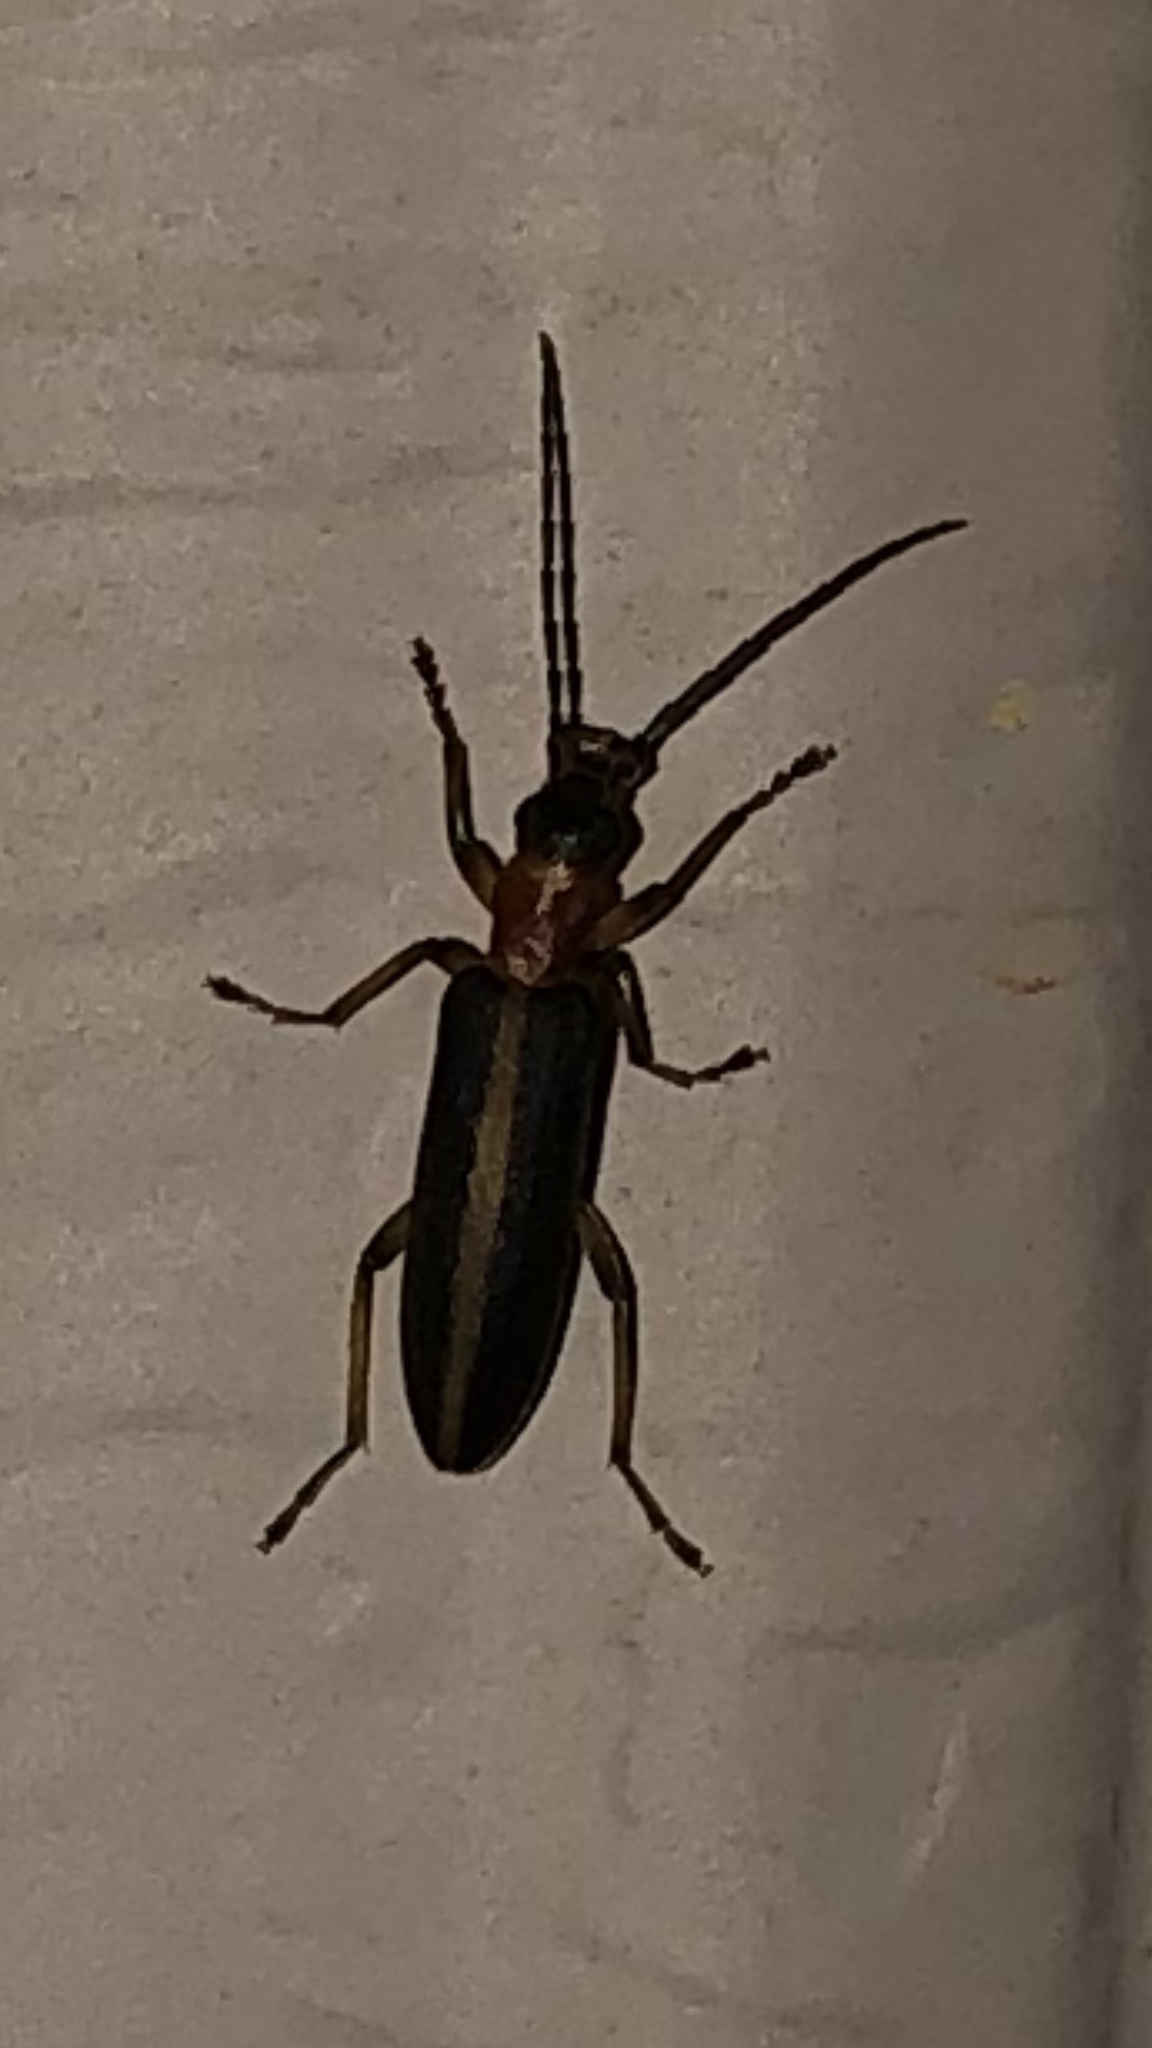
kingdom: Animalia
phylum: Arthropoda
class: Insecta
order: Coleoptera
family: Oedemeridae
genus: Oxycopis
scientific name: Oxycopis mimetica
